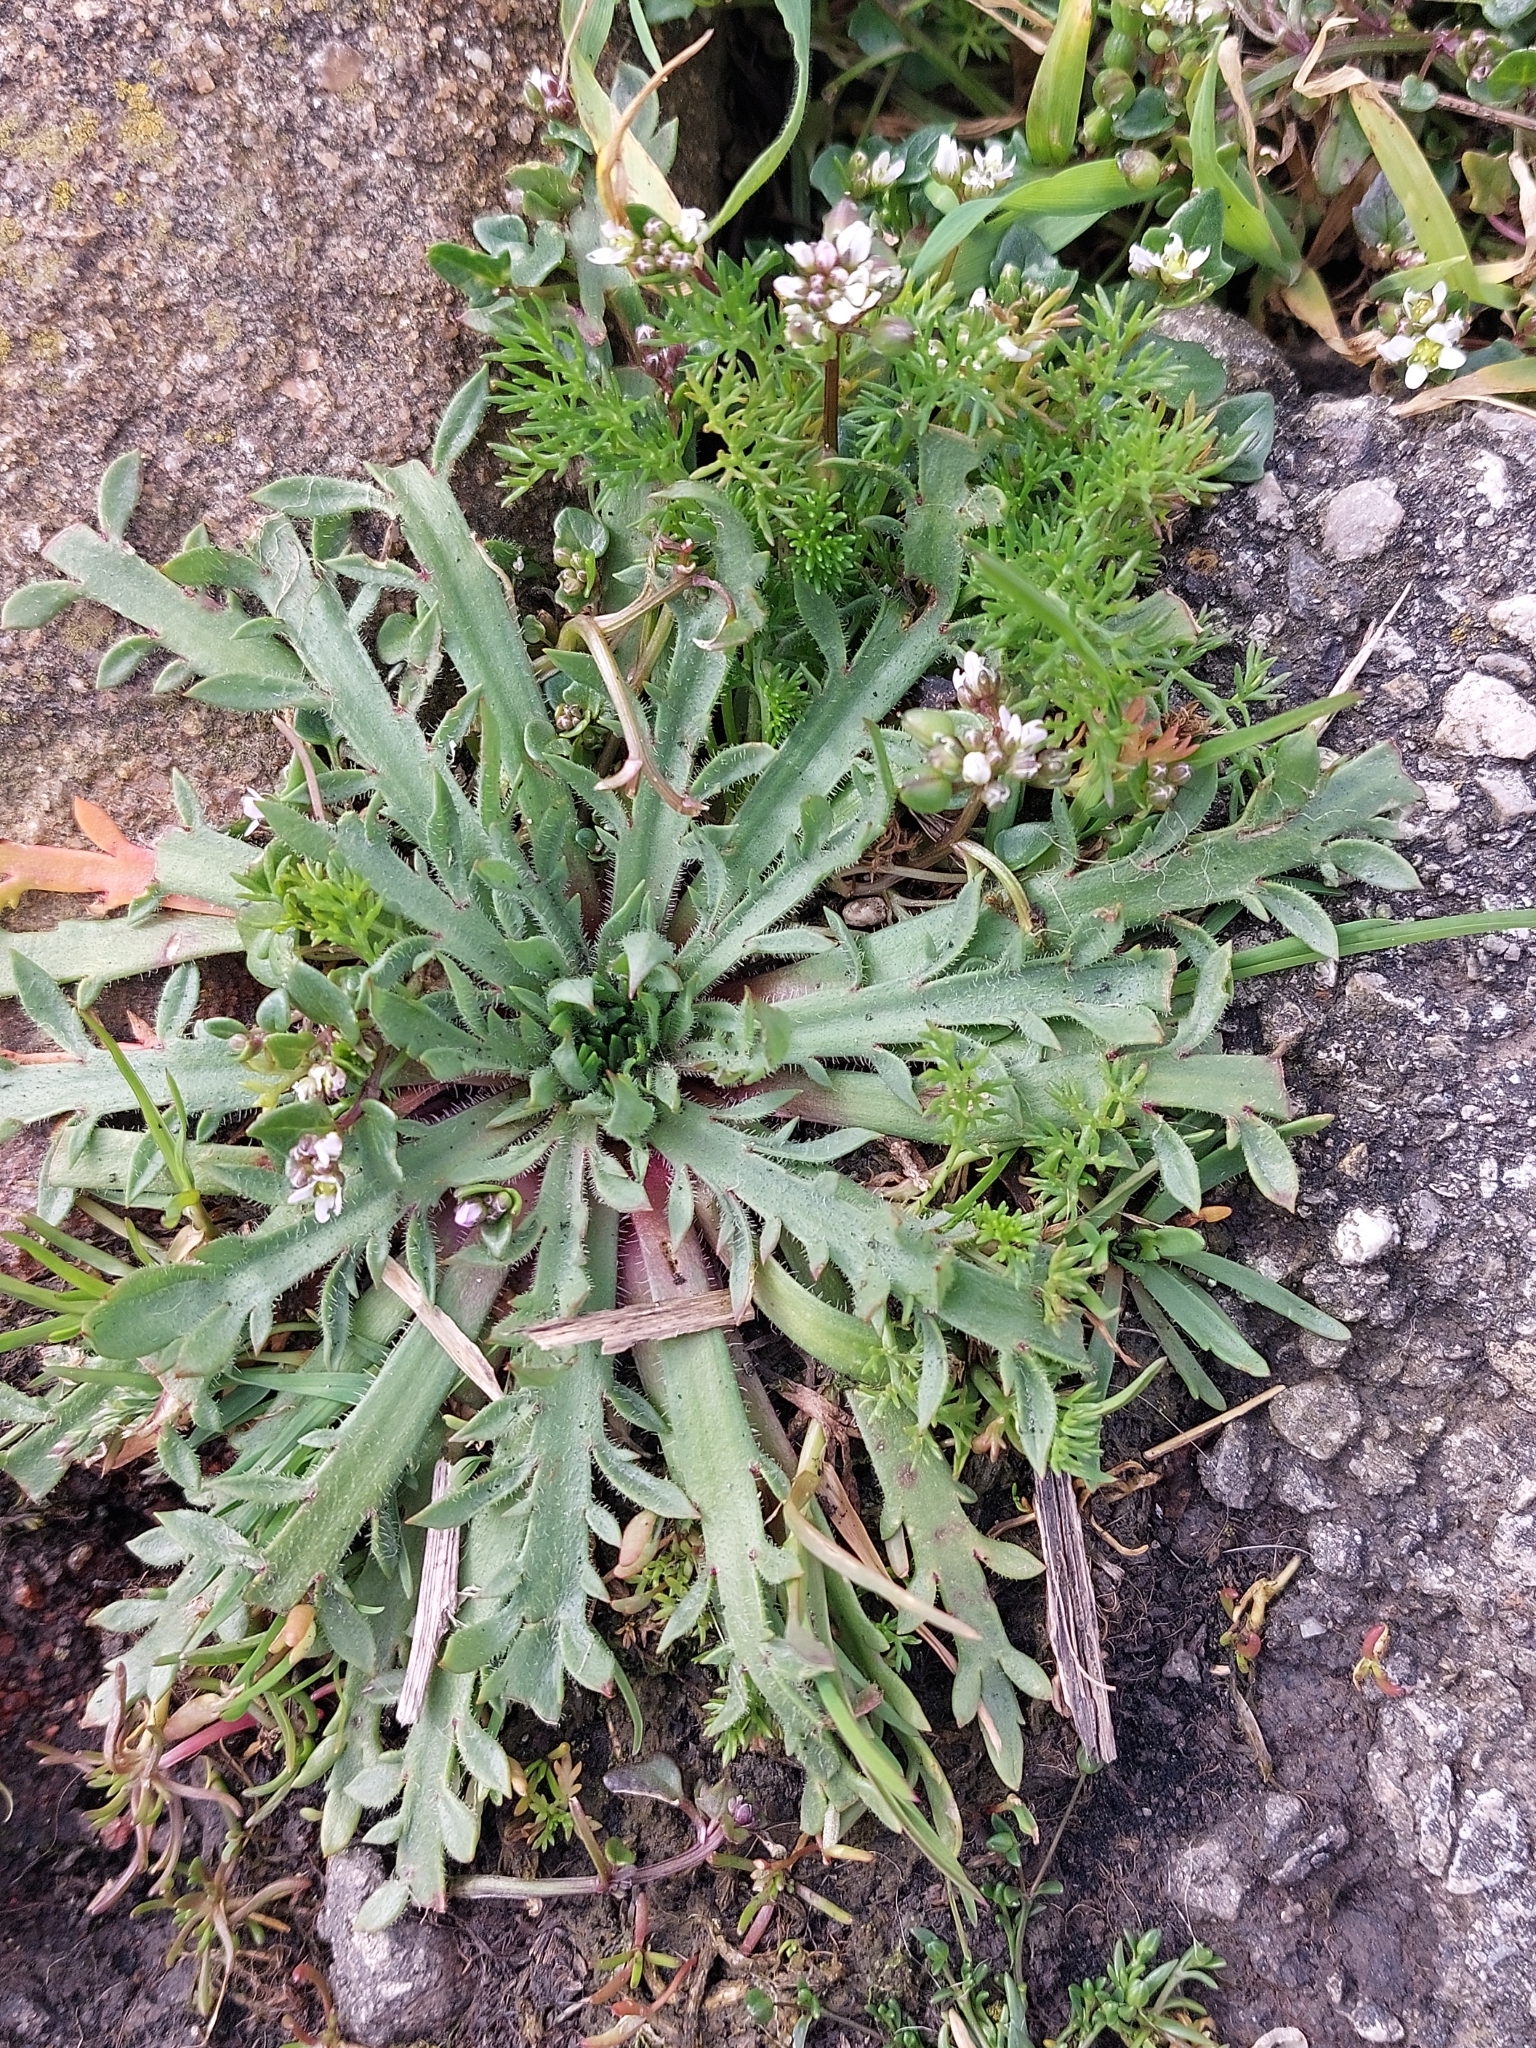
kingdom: Plantae
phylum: Tracheophyta
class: Magnoliopsida
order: Lamiales
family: Plantaginaceae
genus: Plantago
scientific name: Plantago coronopus
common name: Buck's-horn plantain
